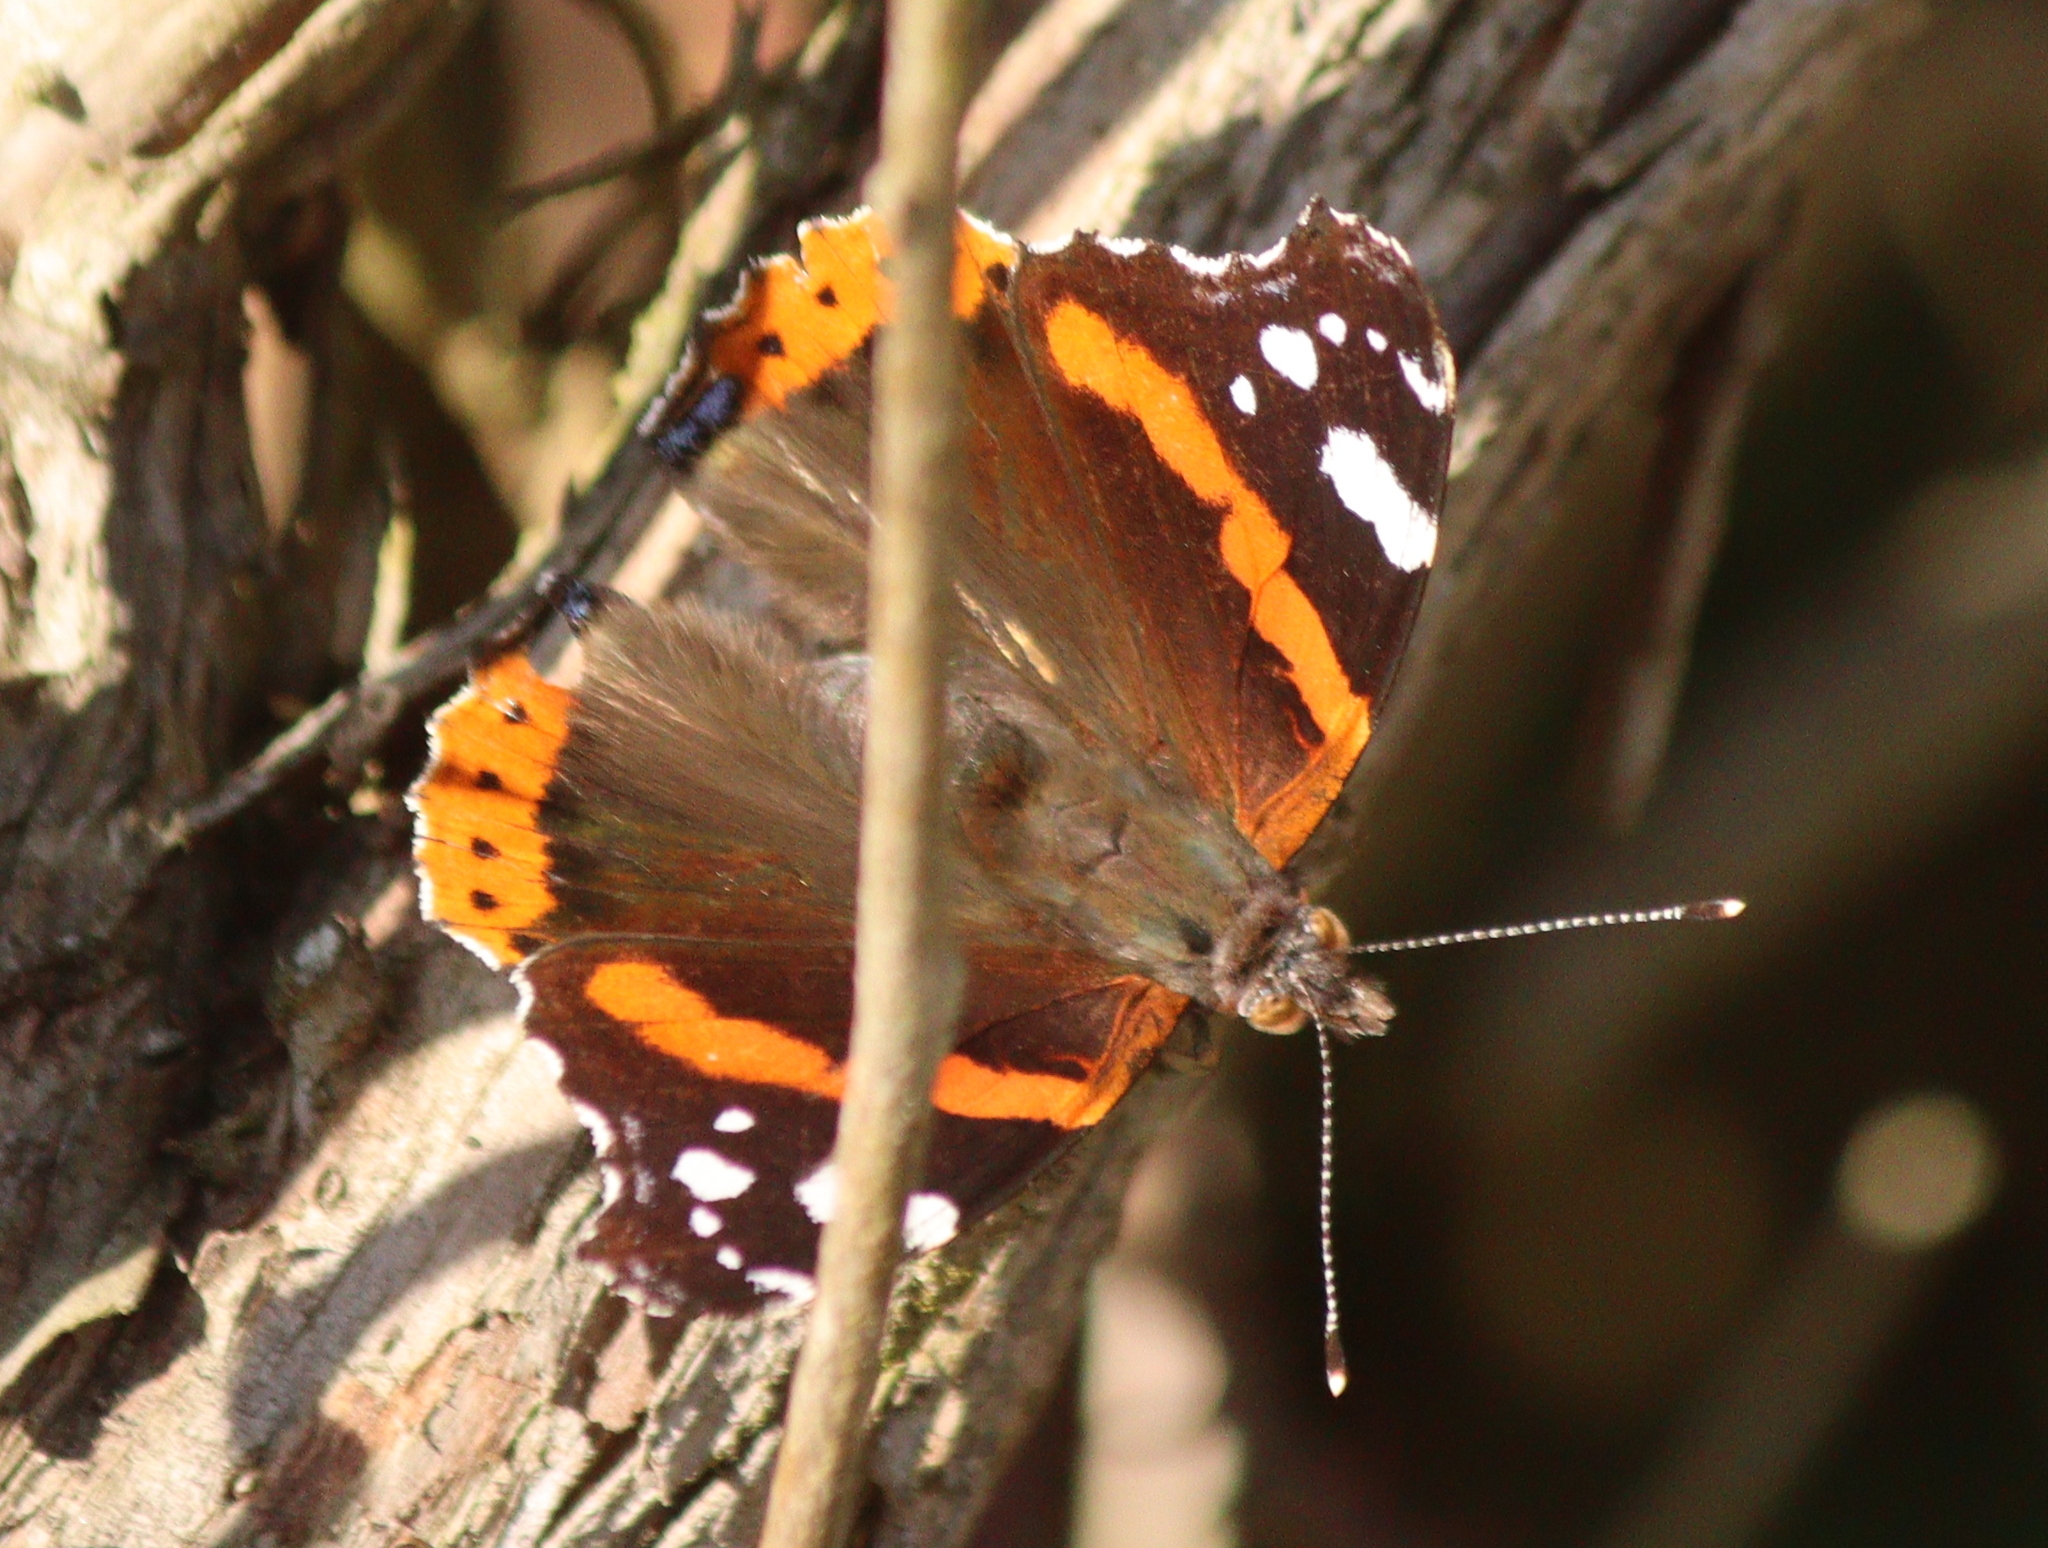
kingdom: Animalia
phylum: Arthropoda
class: Insecta
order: Lepidoptera
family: Nymphalidae
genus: Vanessa
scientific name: Vanessa atalanta
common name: Red admiral
